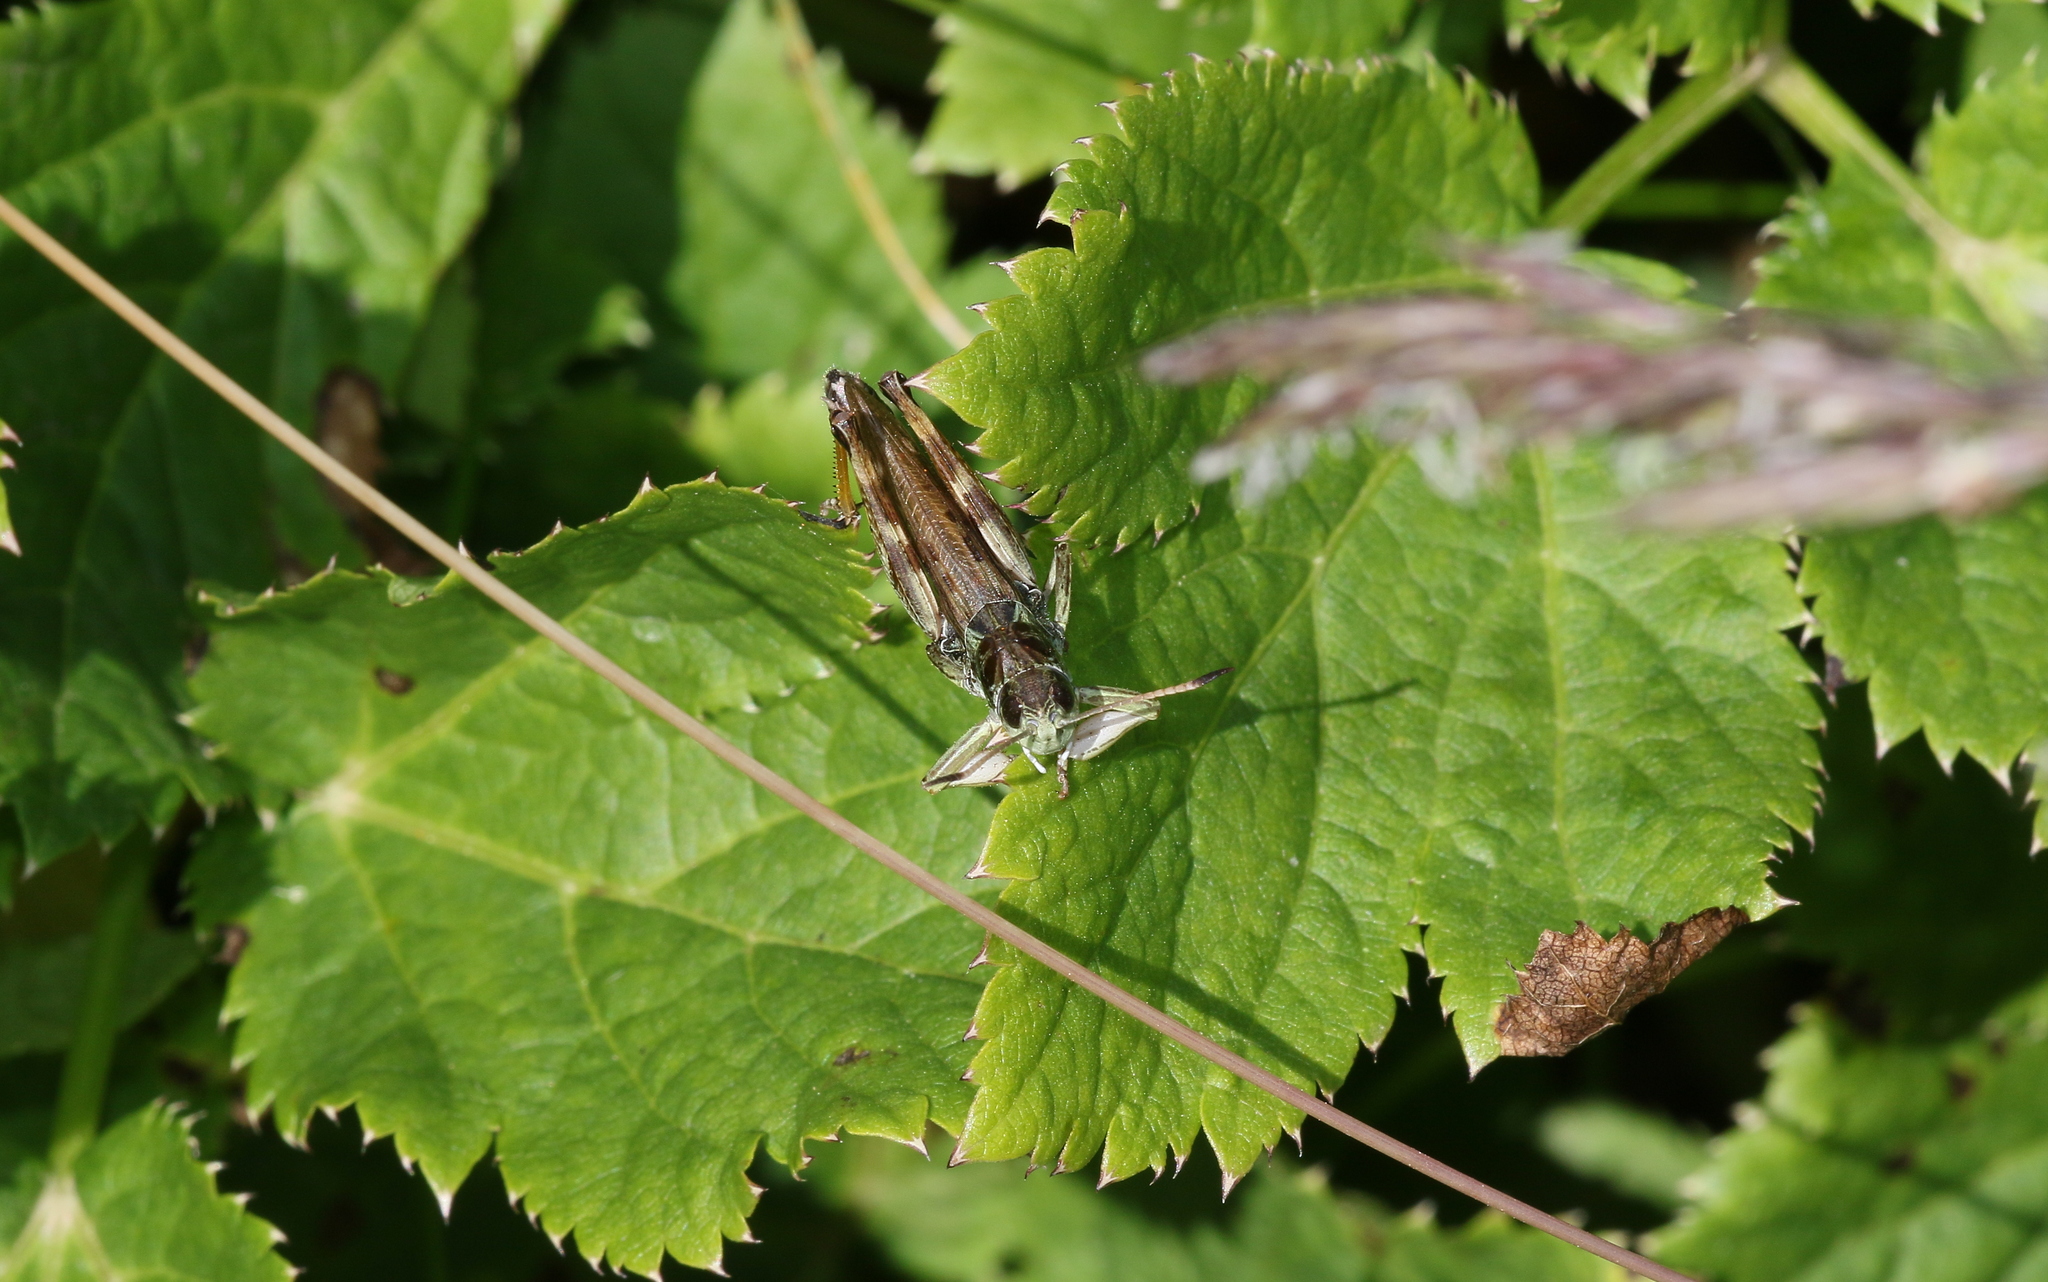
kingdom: Animalia
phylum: Arthropoda
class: Insecta
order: Orthoptera
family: Acrididae
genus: Gomphocerus
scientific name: Gomphocerus sibiricus
